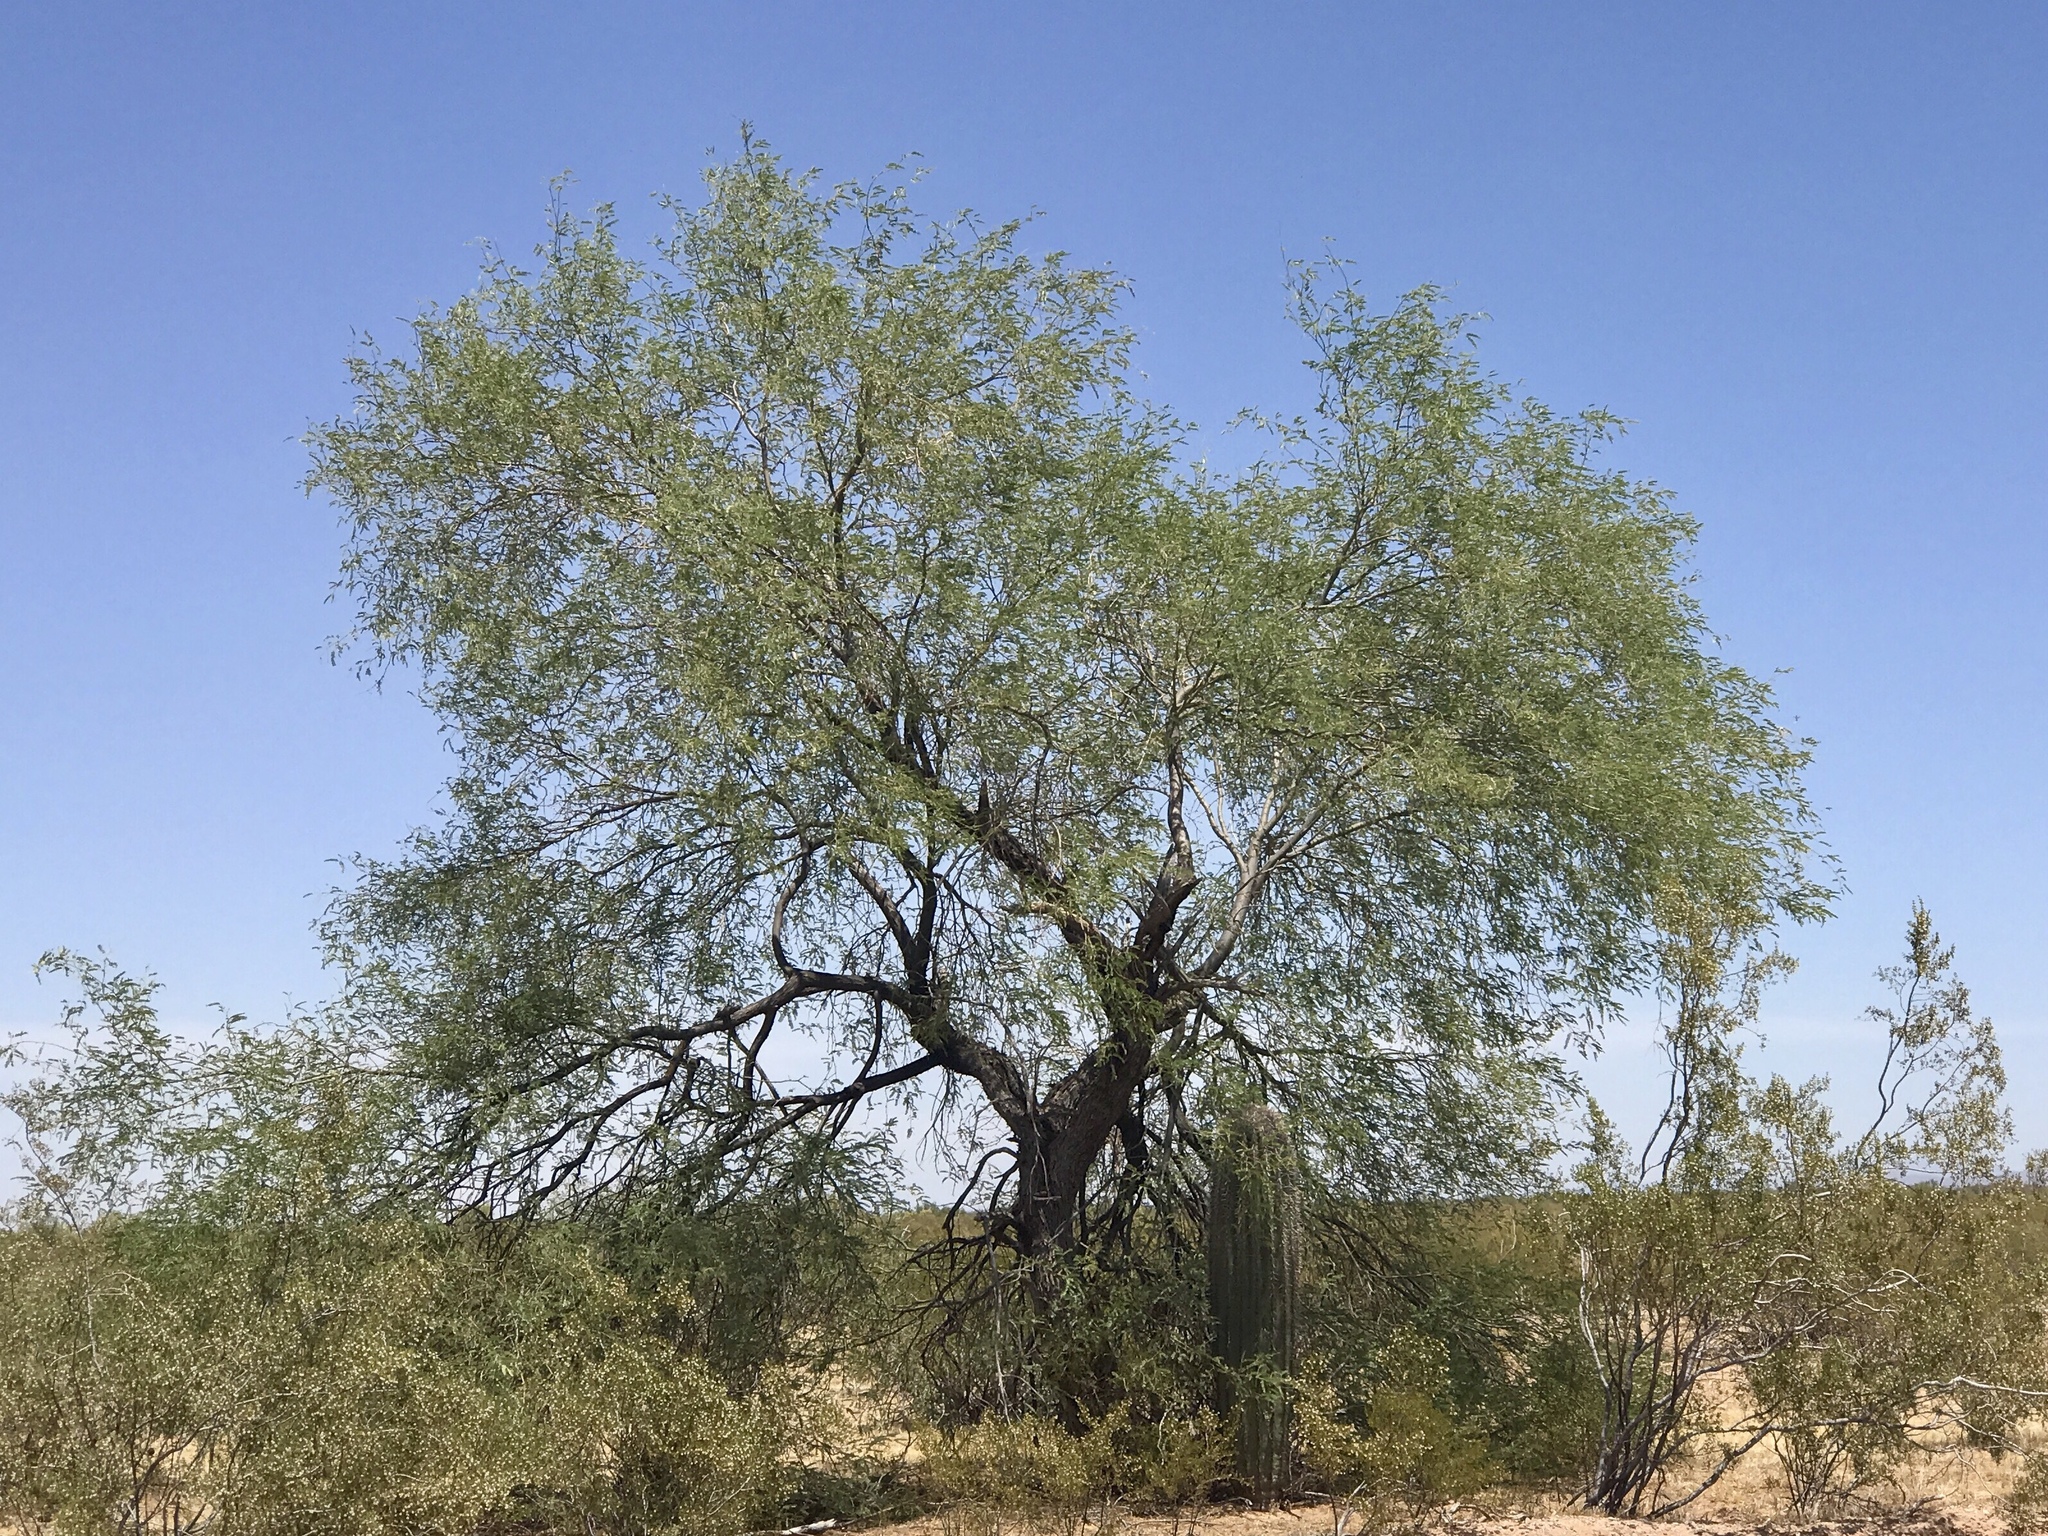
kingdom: Plantae
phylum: Tracheophyta
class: Magnoliopsida
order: Fabales
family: Fabaceae
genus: Parkinsonia
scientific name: Parkinsonia florida
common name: Blue paloverde
